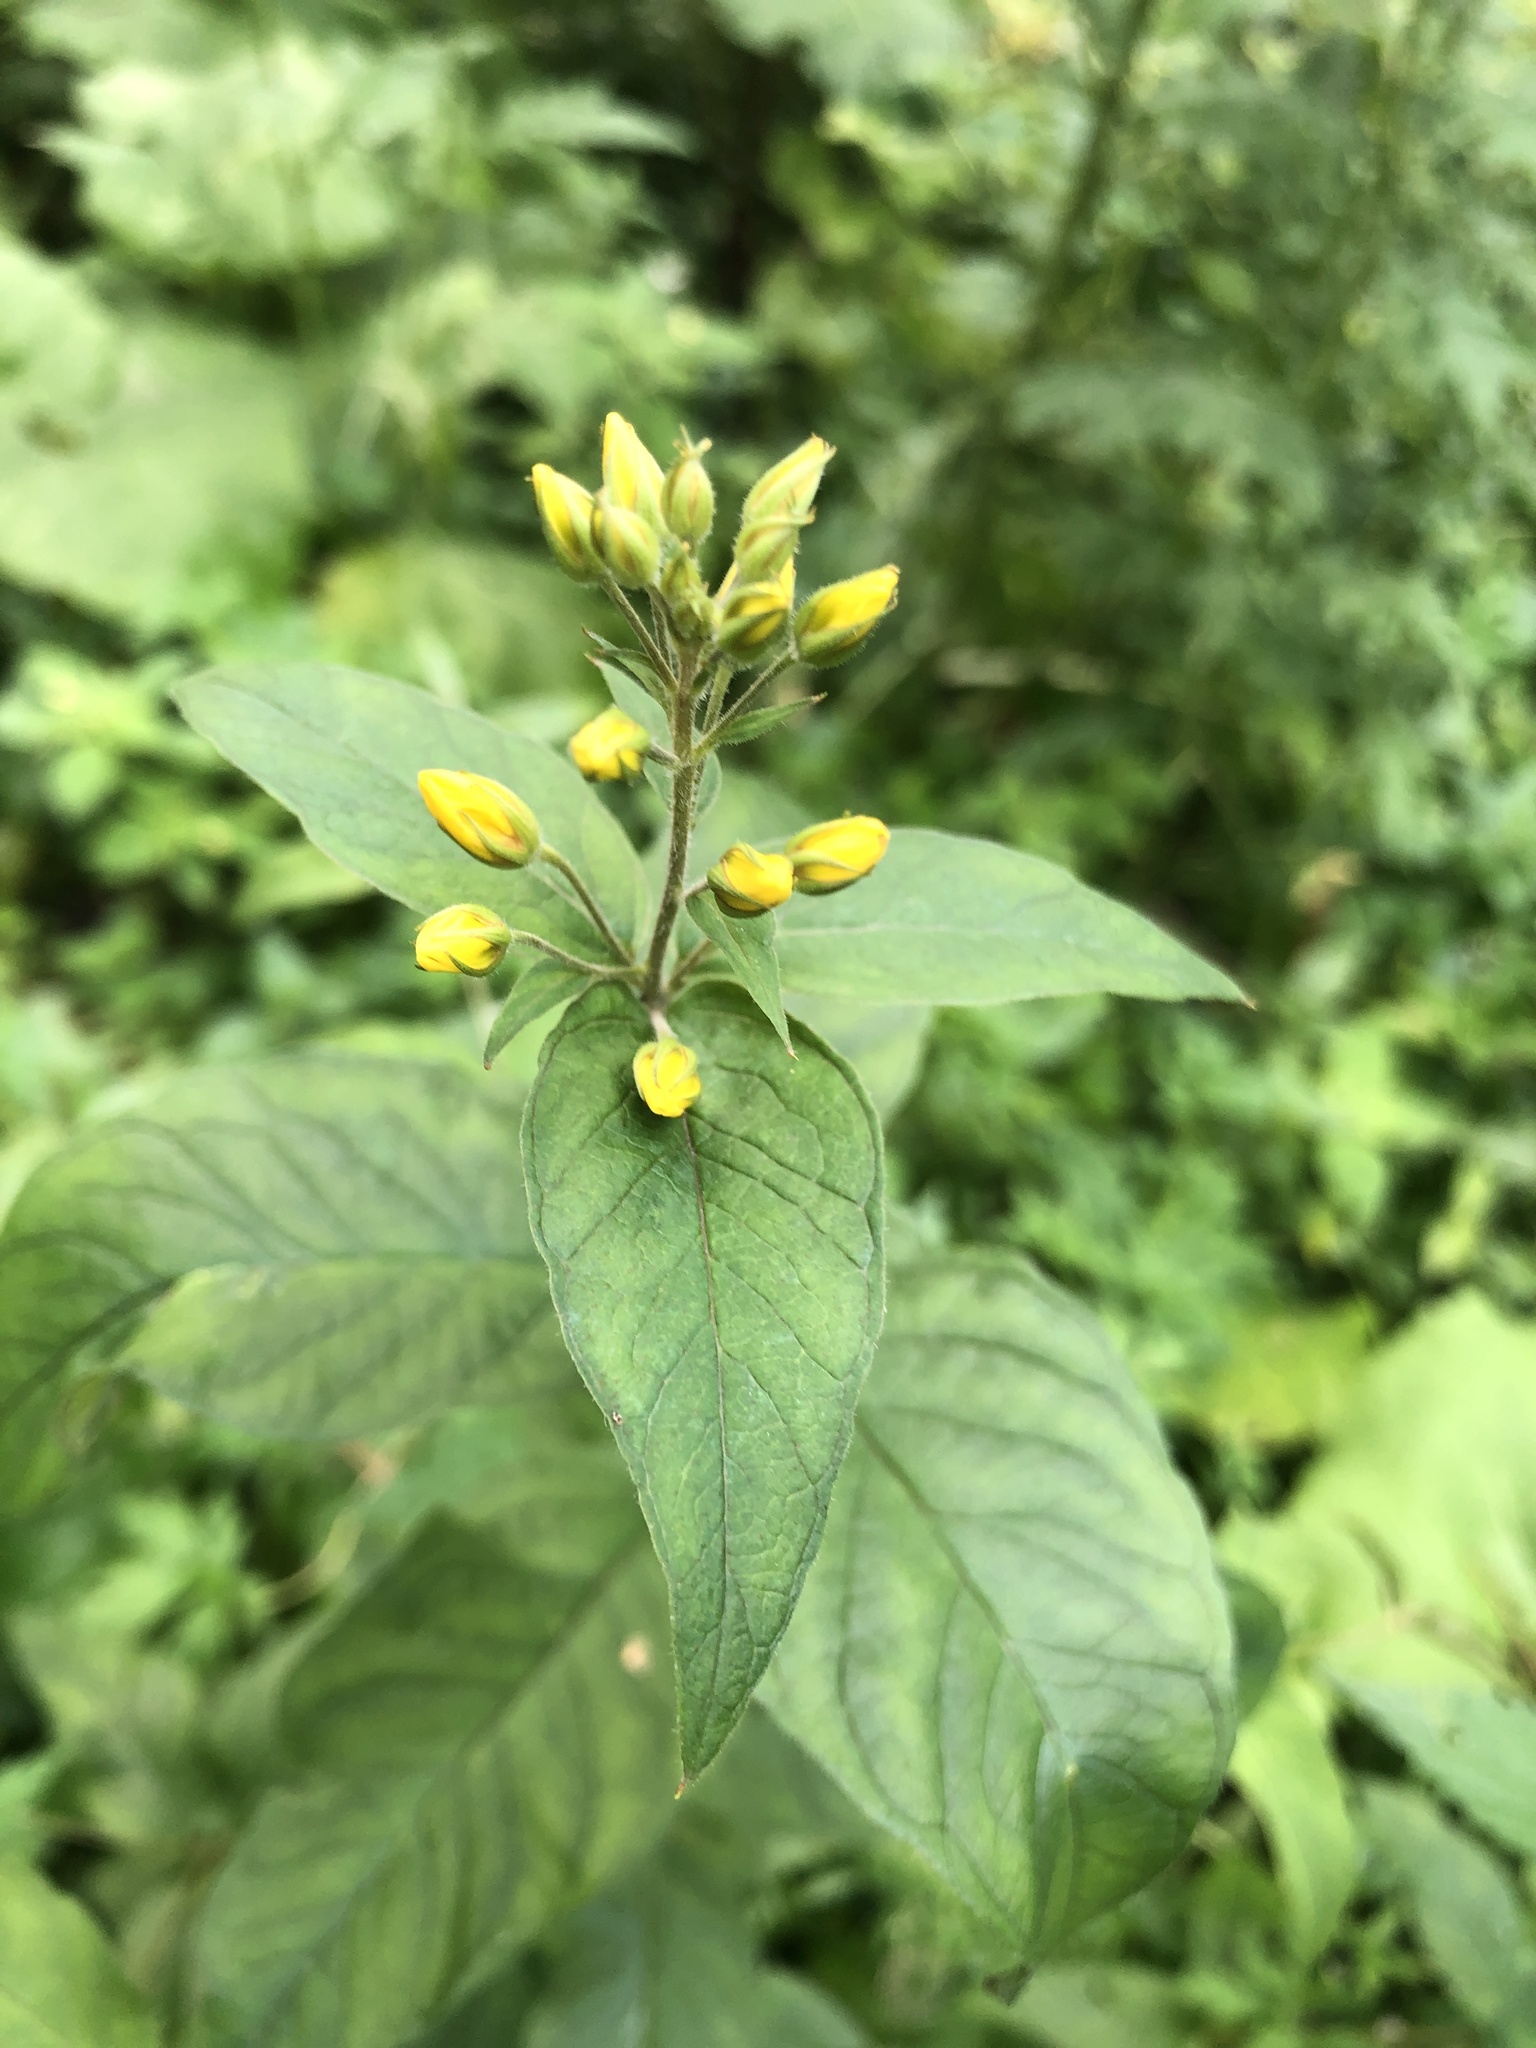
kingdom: Plantae
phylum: Tracheophyta
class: Magnoliopsida
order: Ericales
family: Primulaceae
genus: Lysimachia
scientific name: Lysimachia vulgaris
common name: Yellow loosestrife
